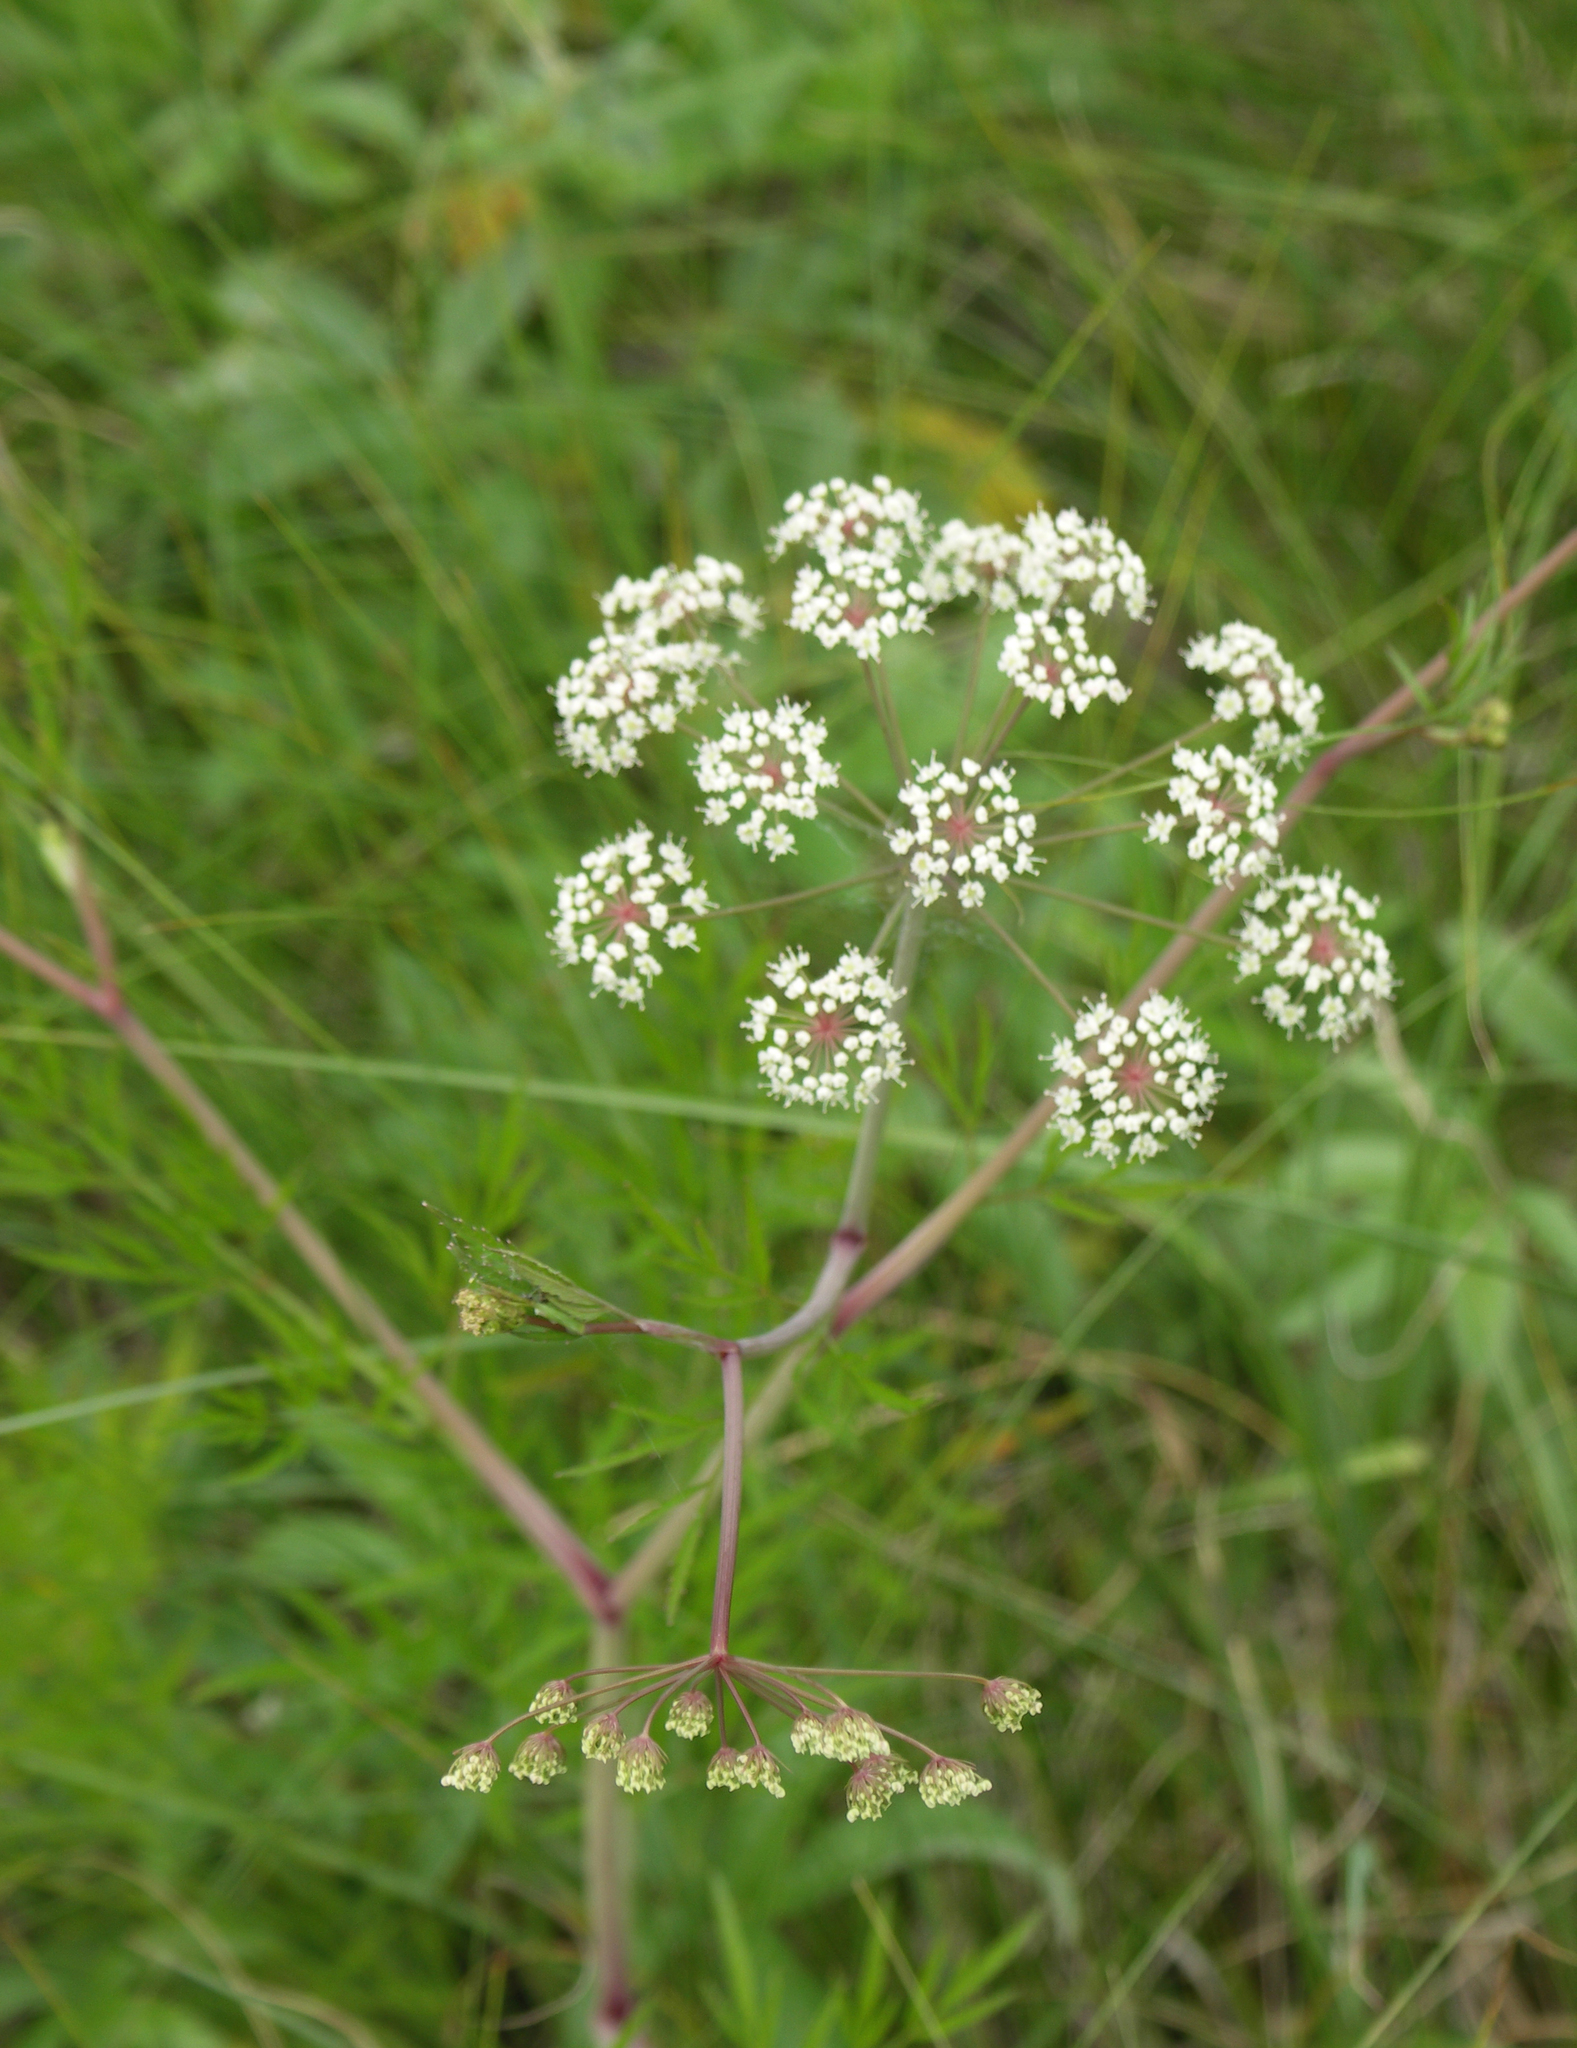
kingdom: Plantae
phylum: Tracheophyta
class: Magnoliopsida
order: Apiales
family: Apiaceae
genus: Cicuta
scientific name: Cicuta virosa
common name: Cowbane
